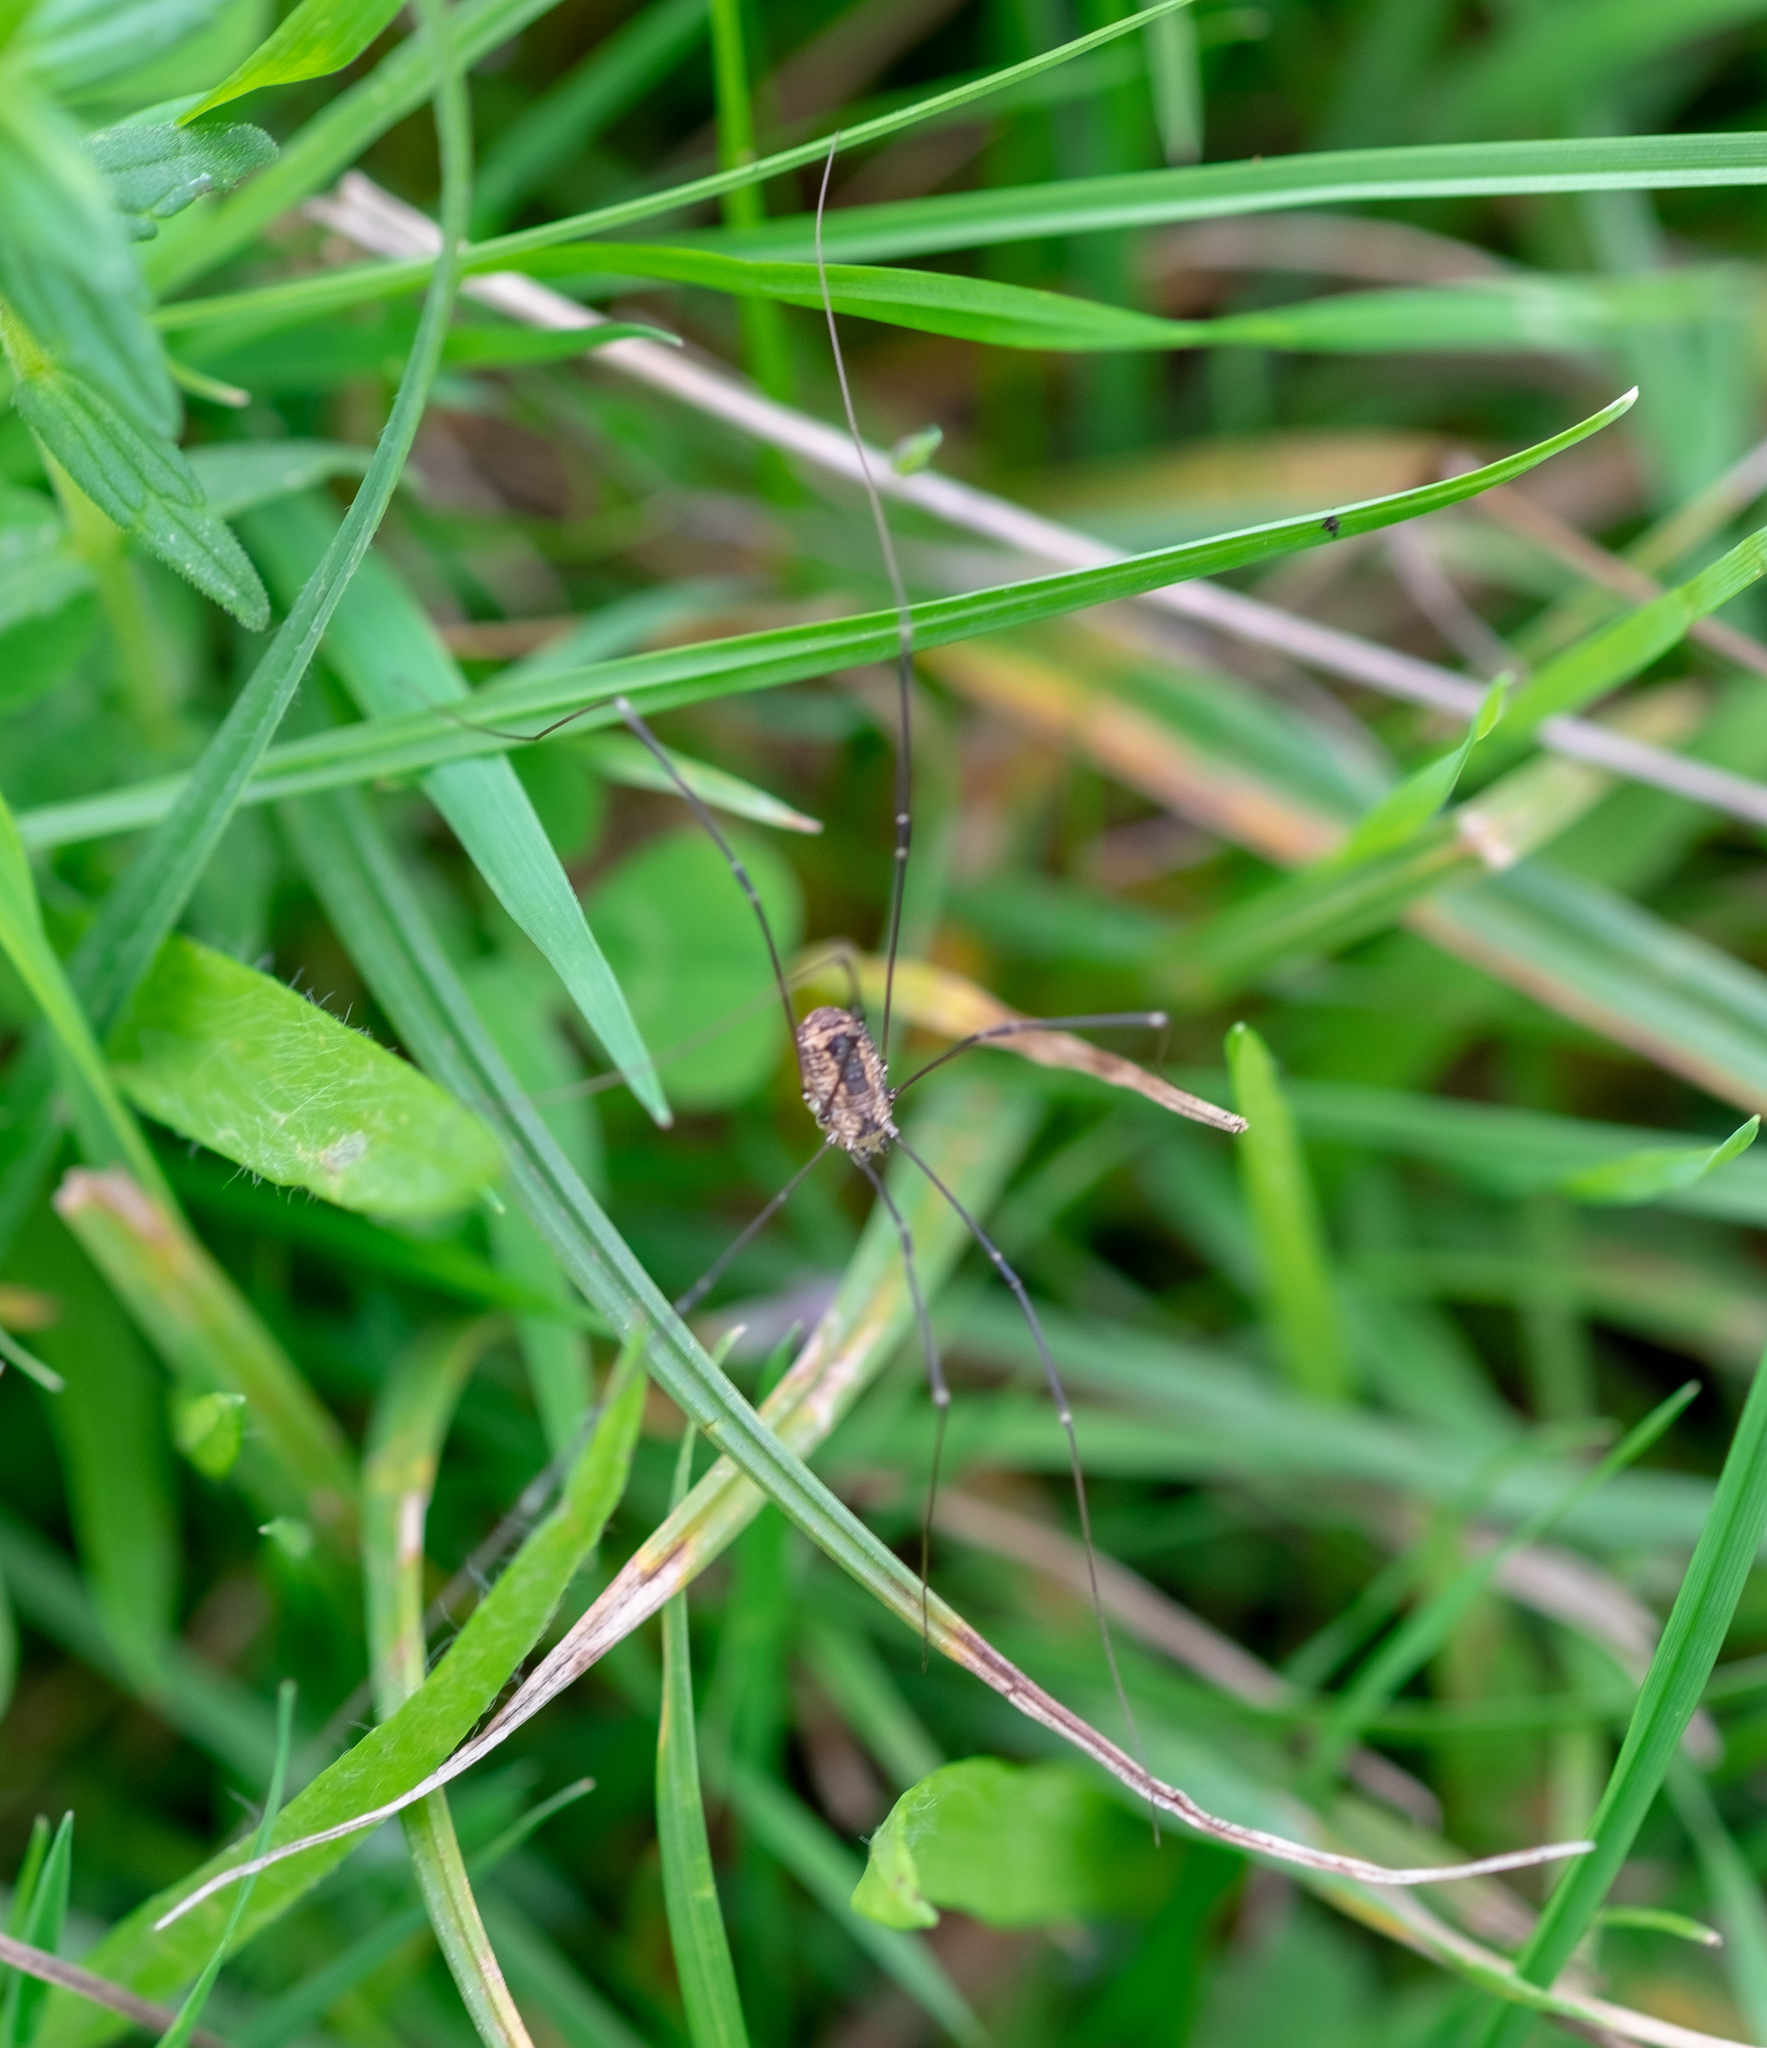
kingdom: Animalia
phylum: Arthropoda
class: Arachnida
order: Opiliones
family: Sclerosomatidae
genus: Leiobunum
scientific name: Leiobunum rotundum
